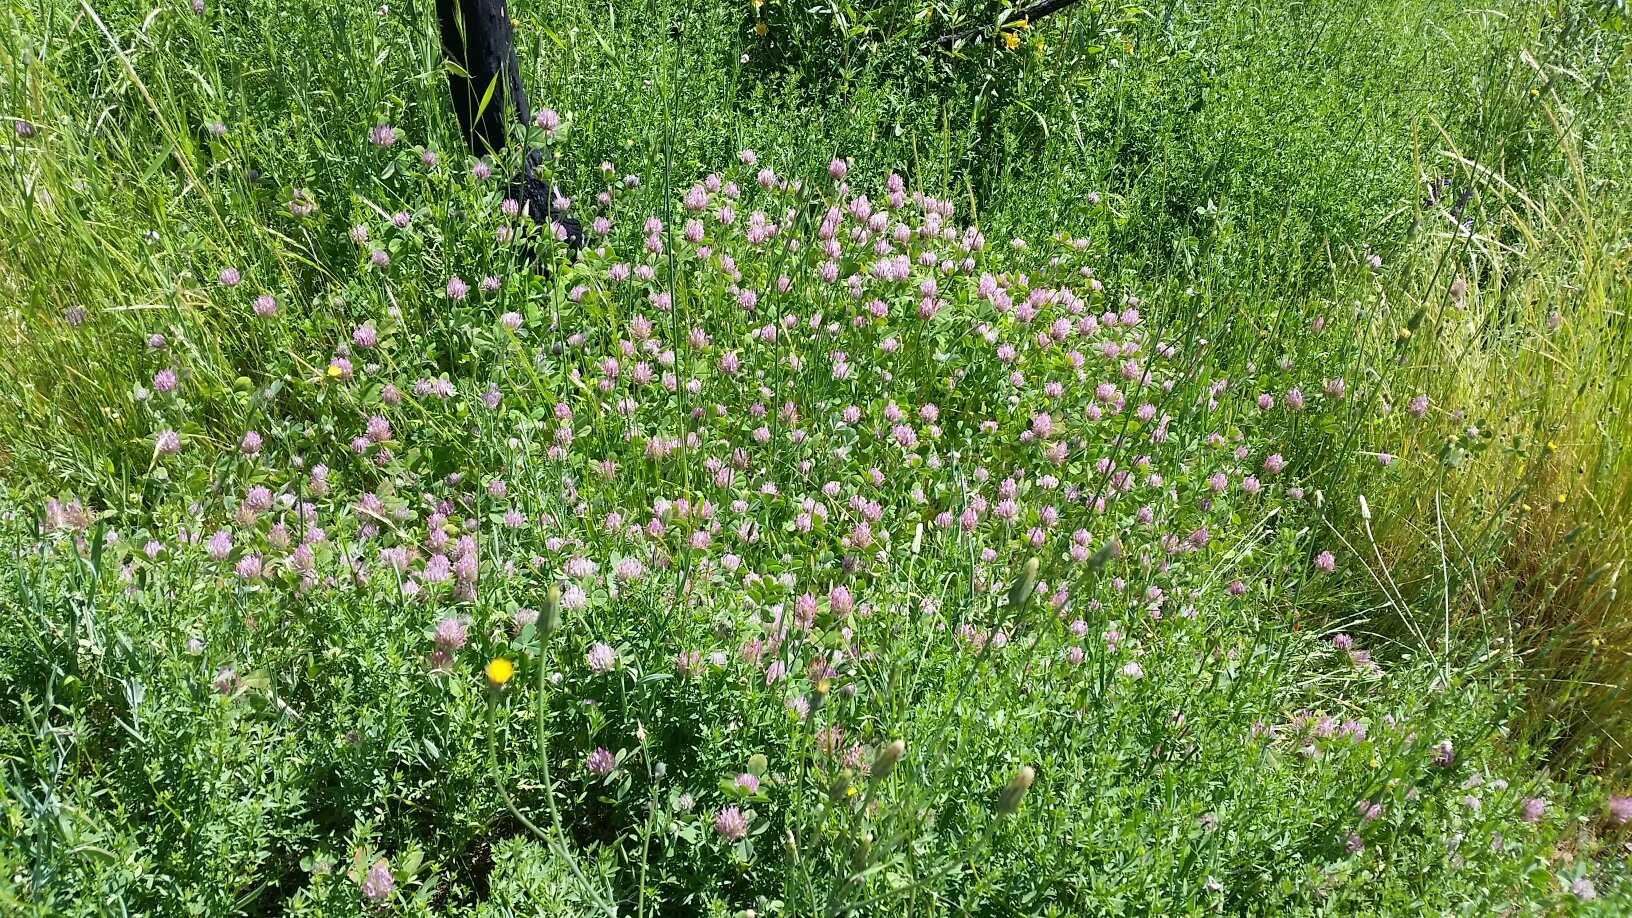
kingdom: Plantae
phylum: Tracheophyta
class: Magnoliopsida
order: Fabales
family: Fabaceae
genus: Trifolium
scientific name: Trifolium hirtum
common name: Rose clover
